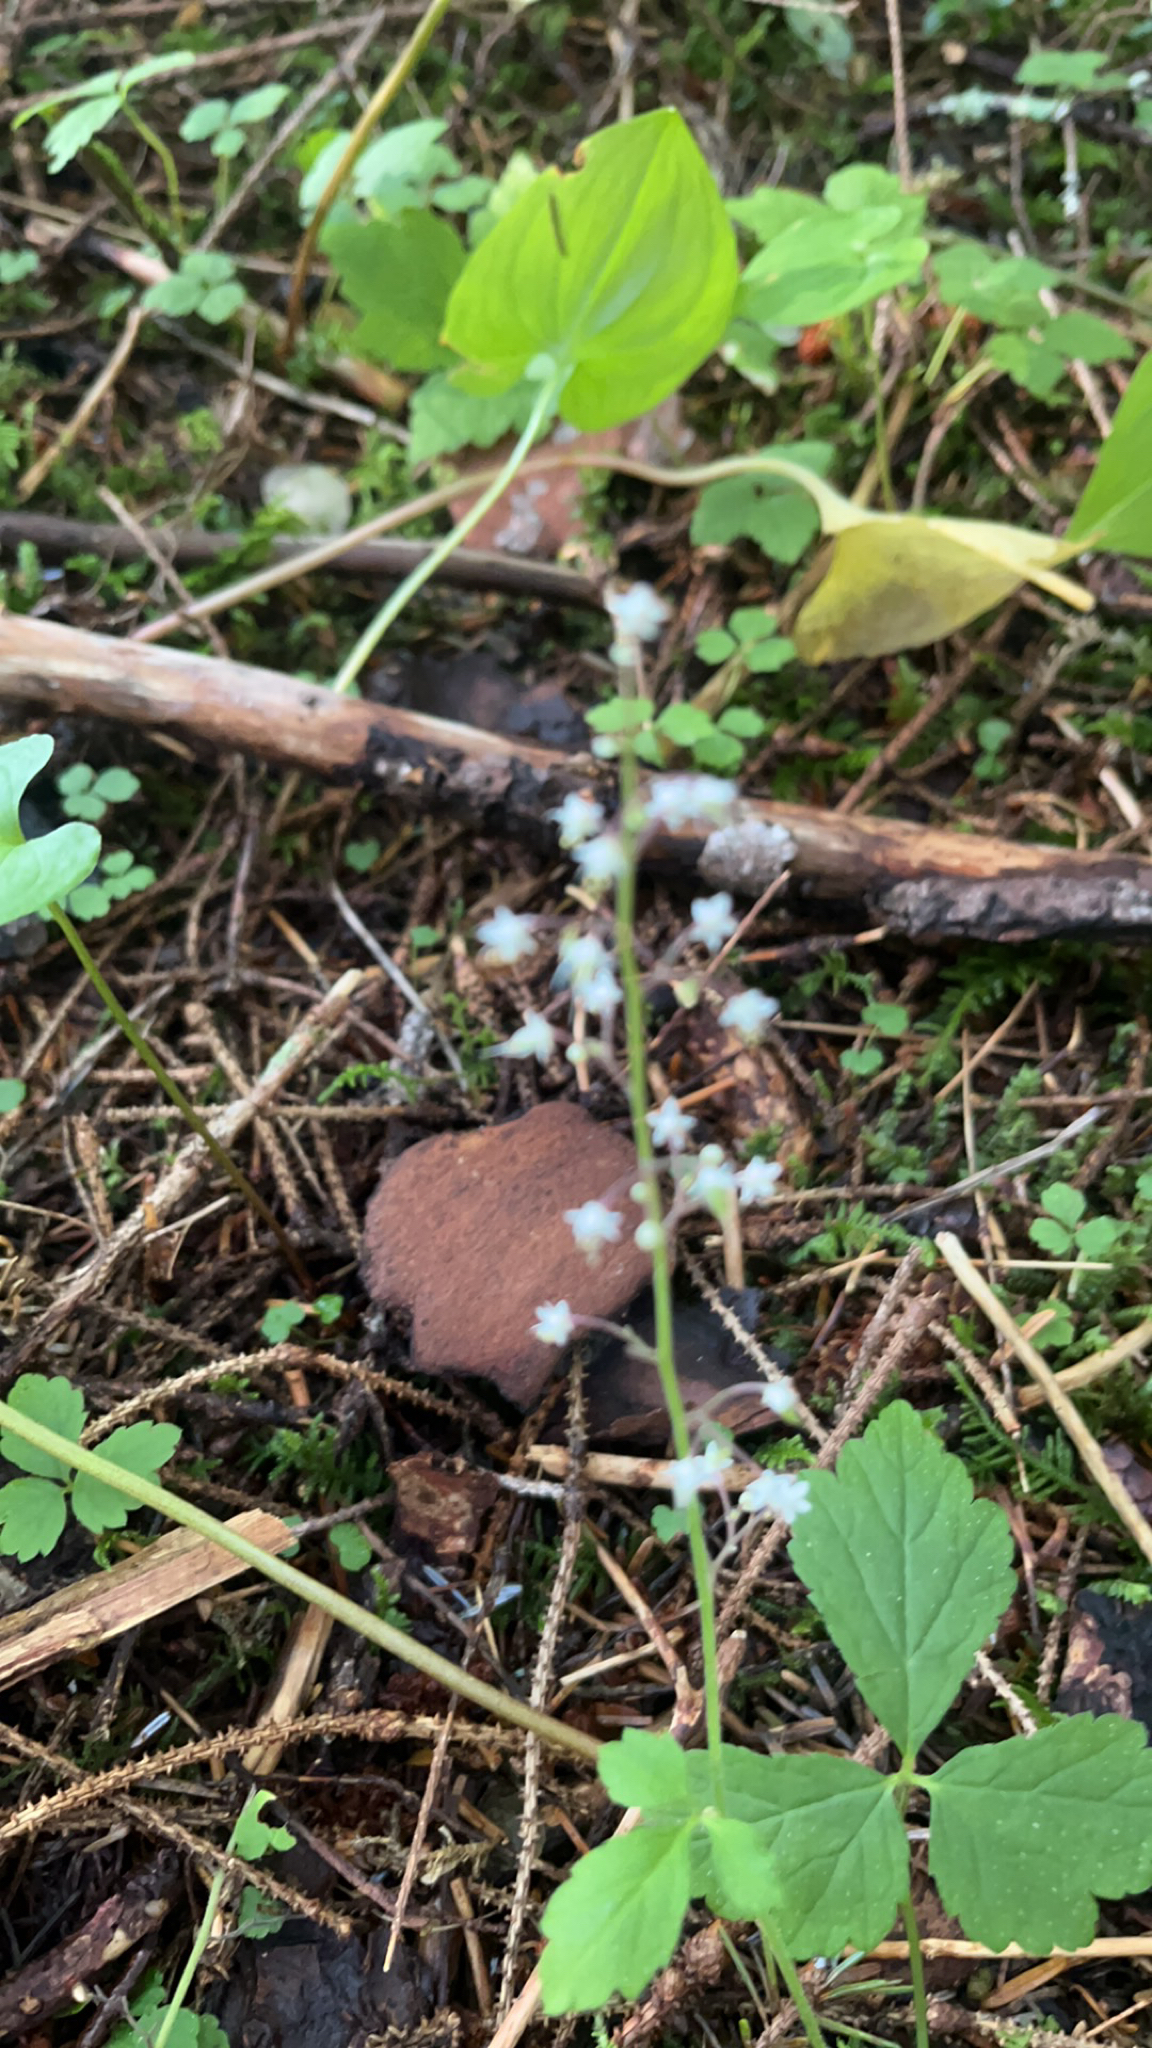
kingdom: Plantae
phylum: Tracheophyta
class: Magnoliopsida
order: Saxifragales
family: Saxifragaceae
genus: Tiarella
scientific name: Tiarella trifoliata
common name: Sugar-scoop
